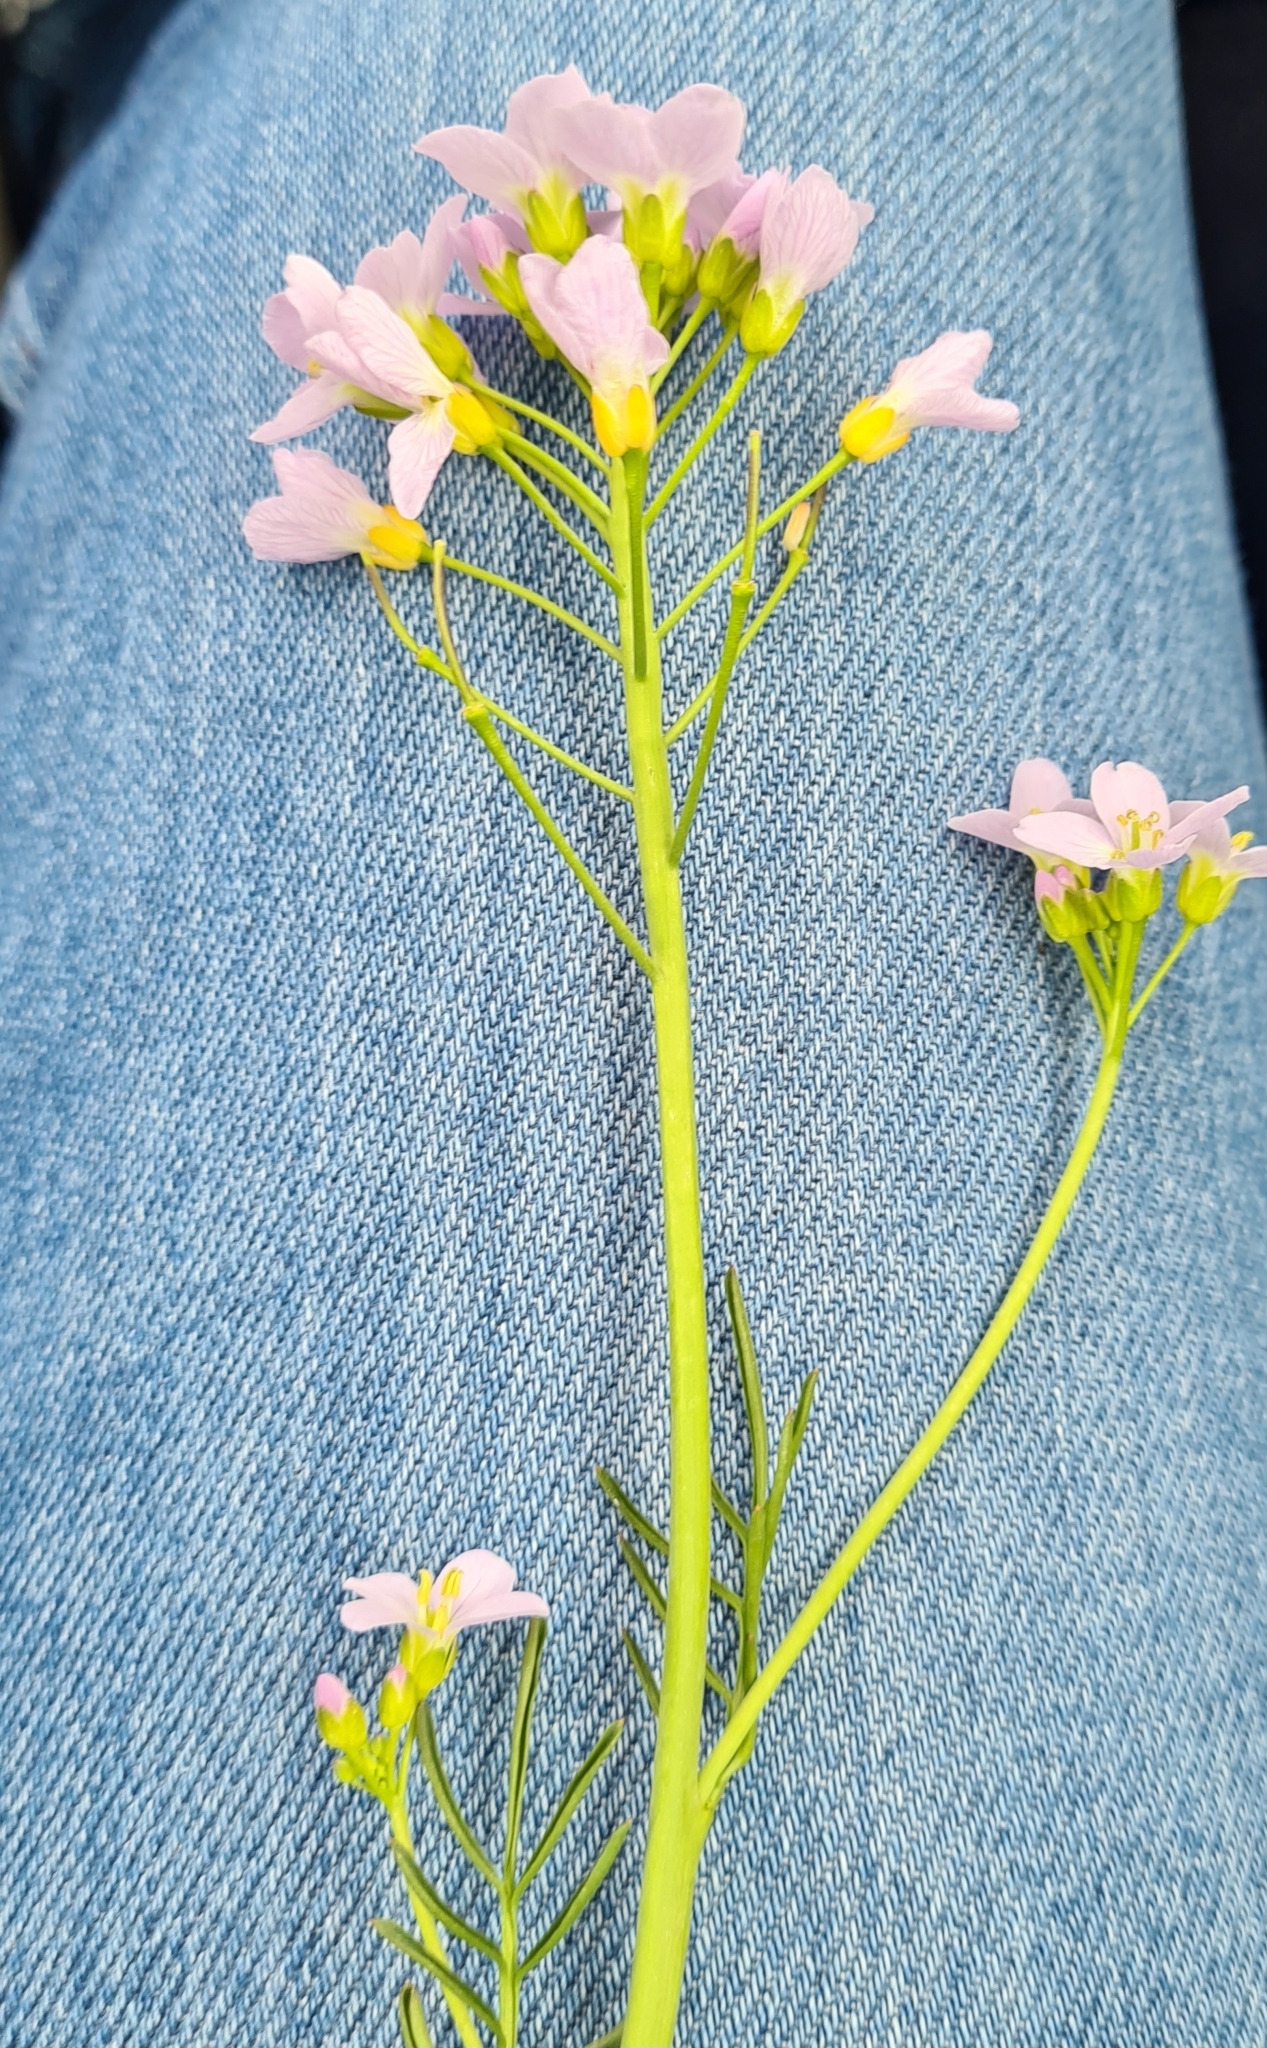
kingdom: Plantae
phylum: Tracheophyta
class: Magnoliopsida
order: Brassicales
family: Brassicaceae
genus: Cardamine
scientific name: Cardamine pratensis
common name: Cuckoo flower
